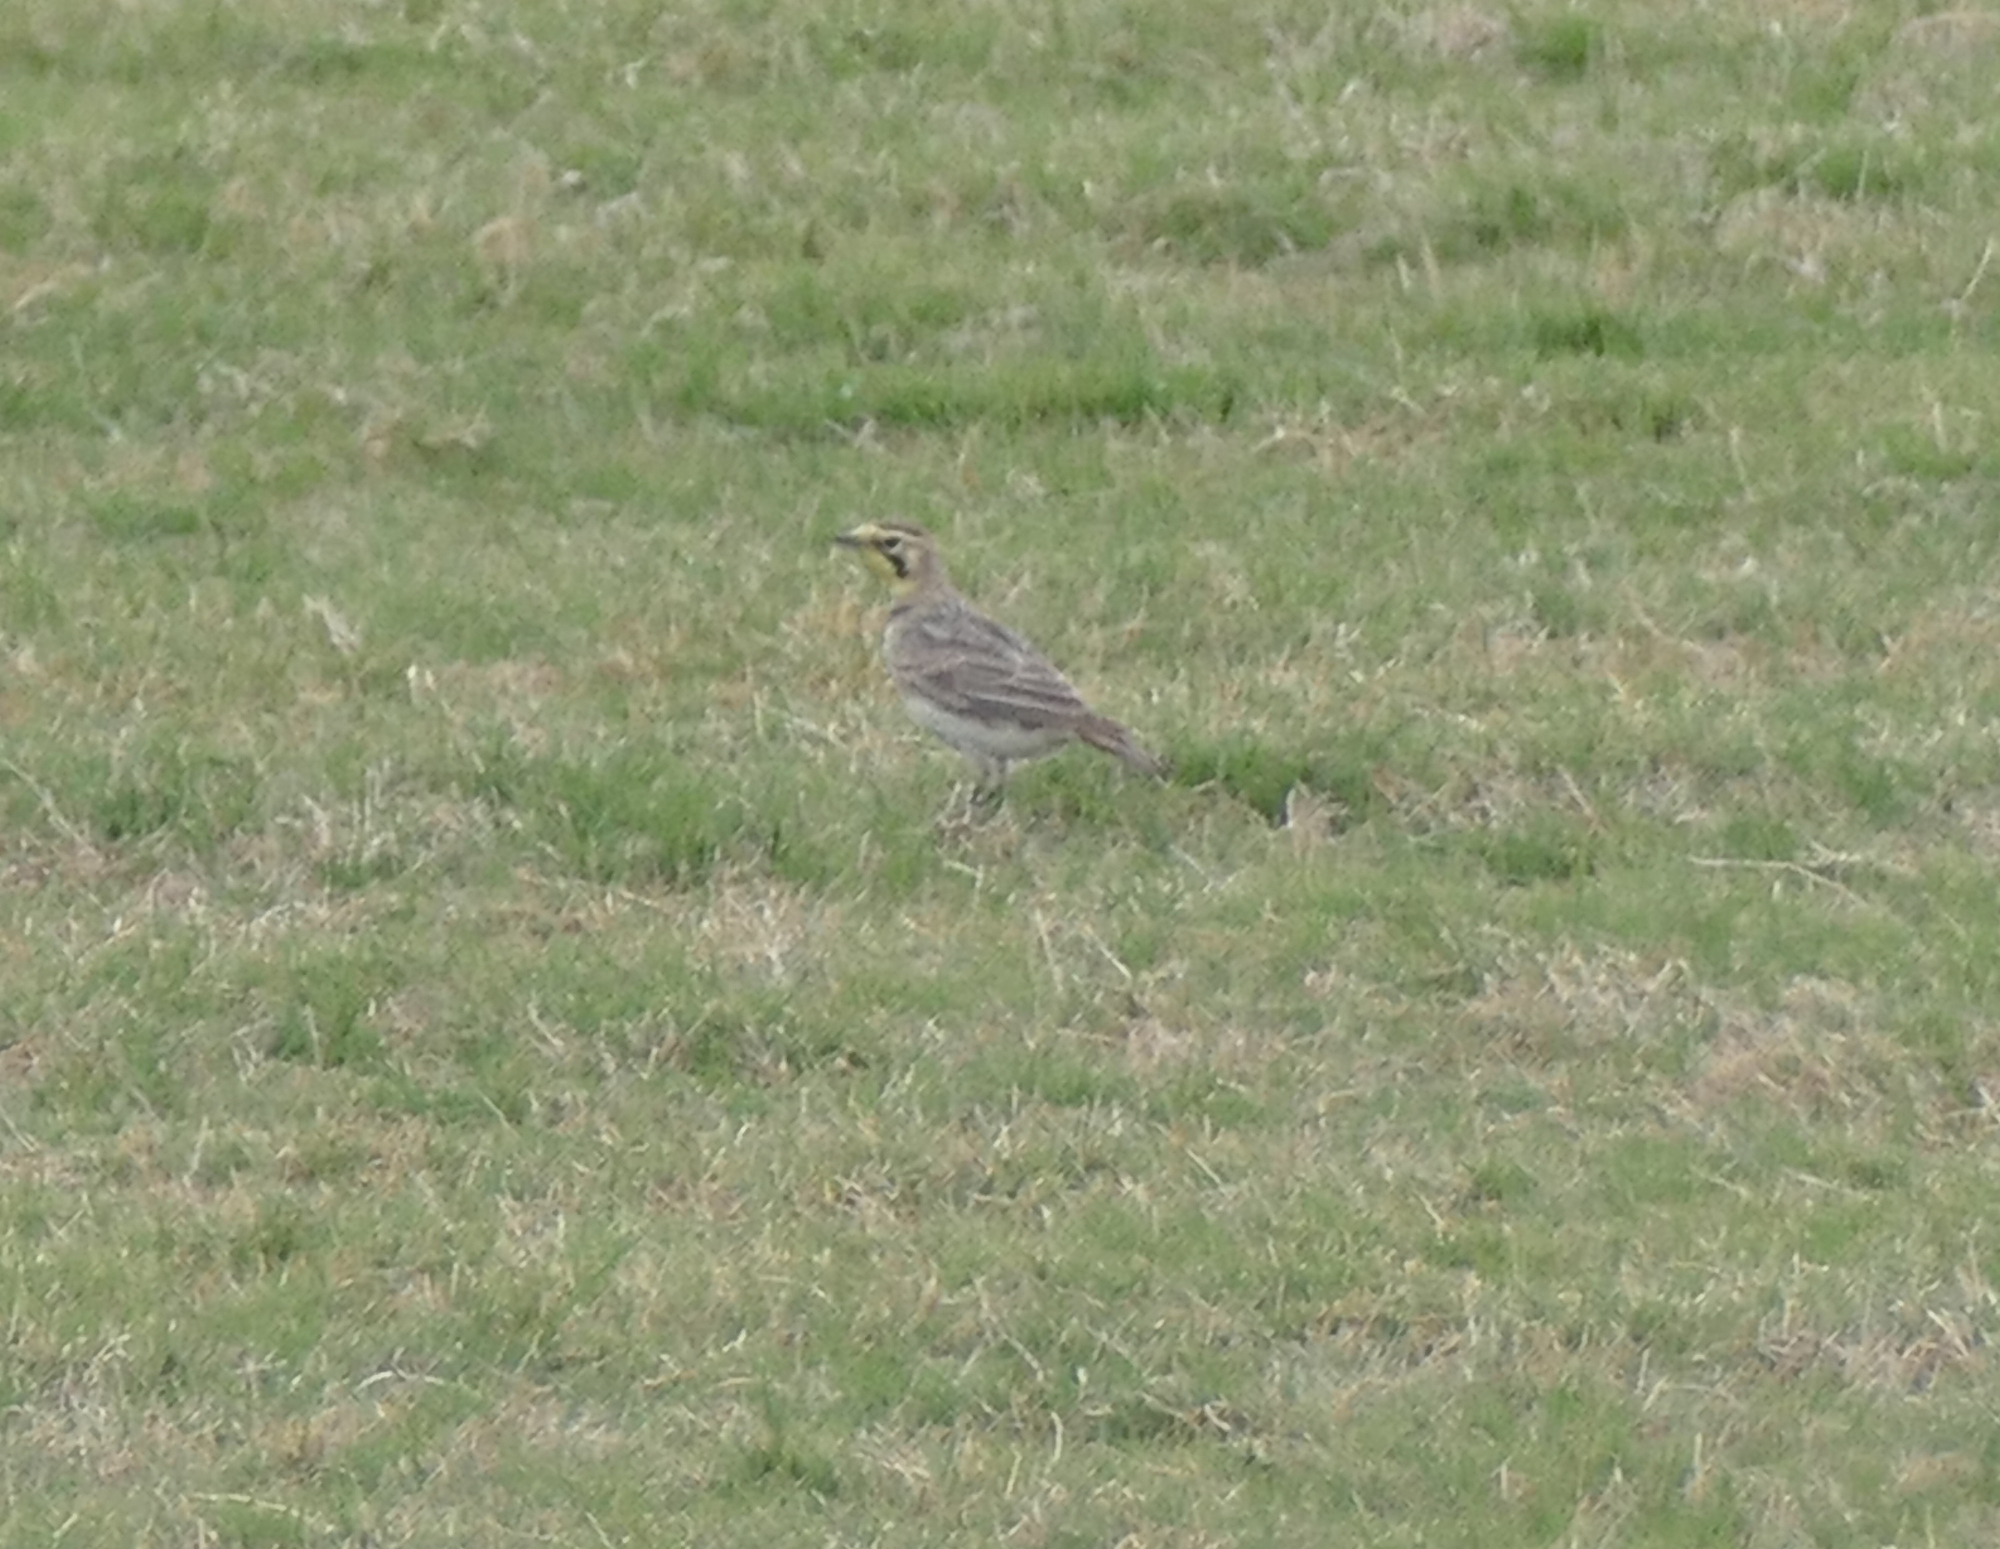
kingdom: Animalia
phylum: Chordata
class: Aves
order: Passeriformes
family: Alaudidae
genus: Eremophila
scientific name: Eremophila alpestris
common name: Horned lark
